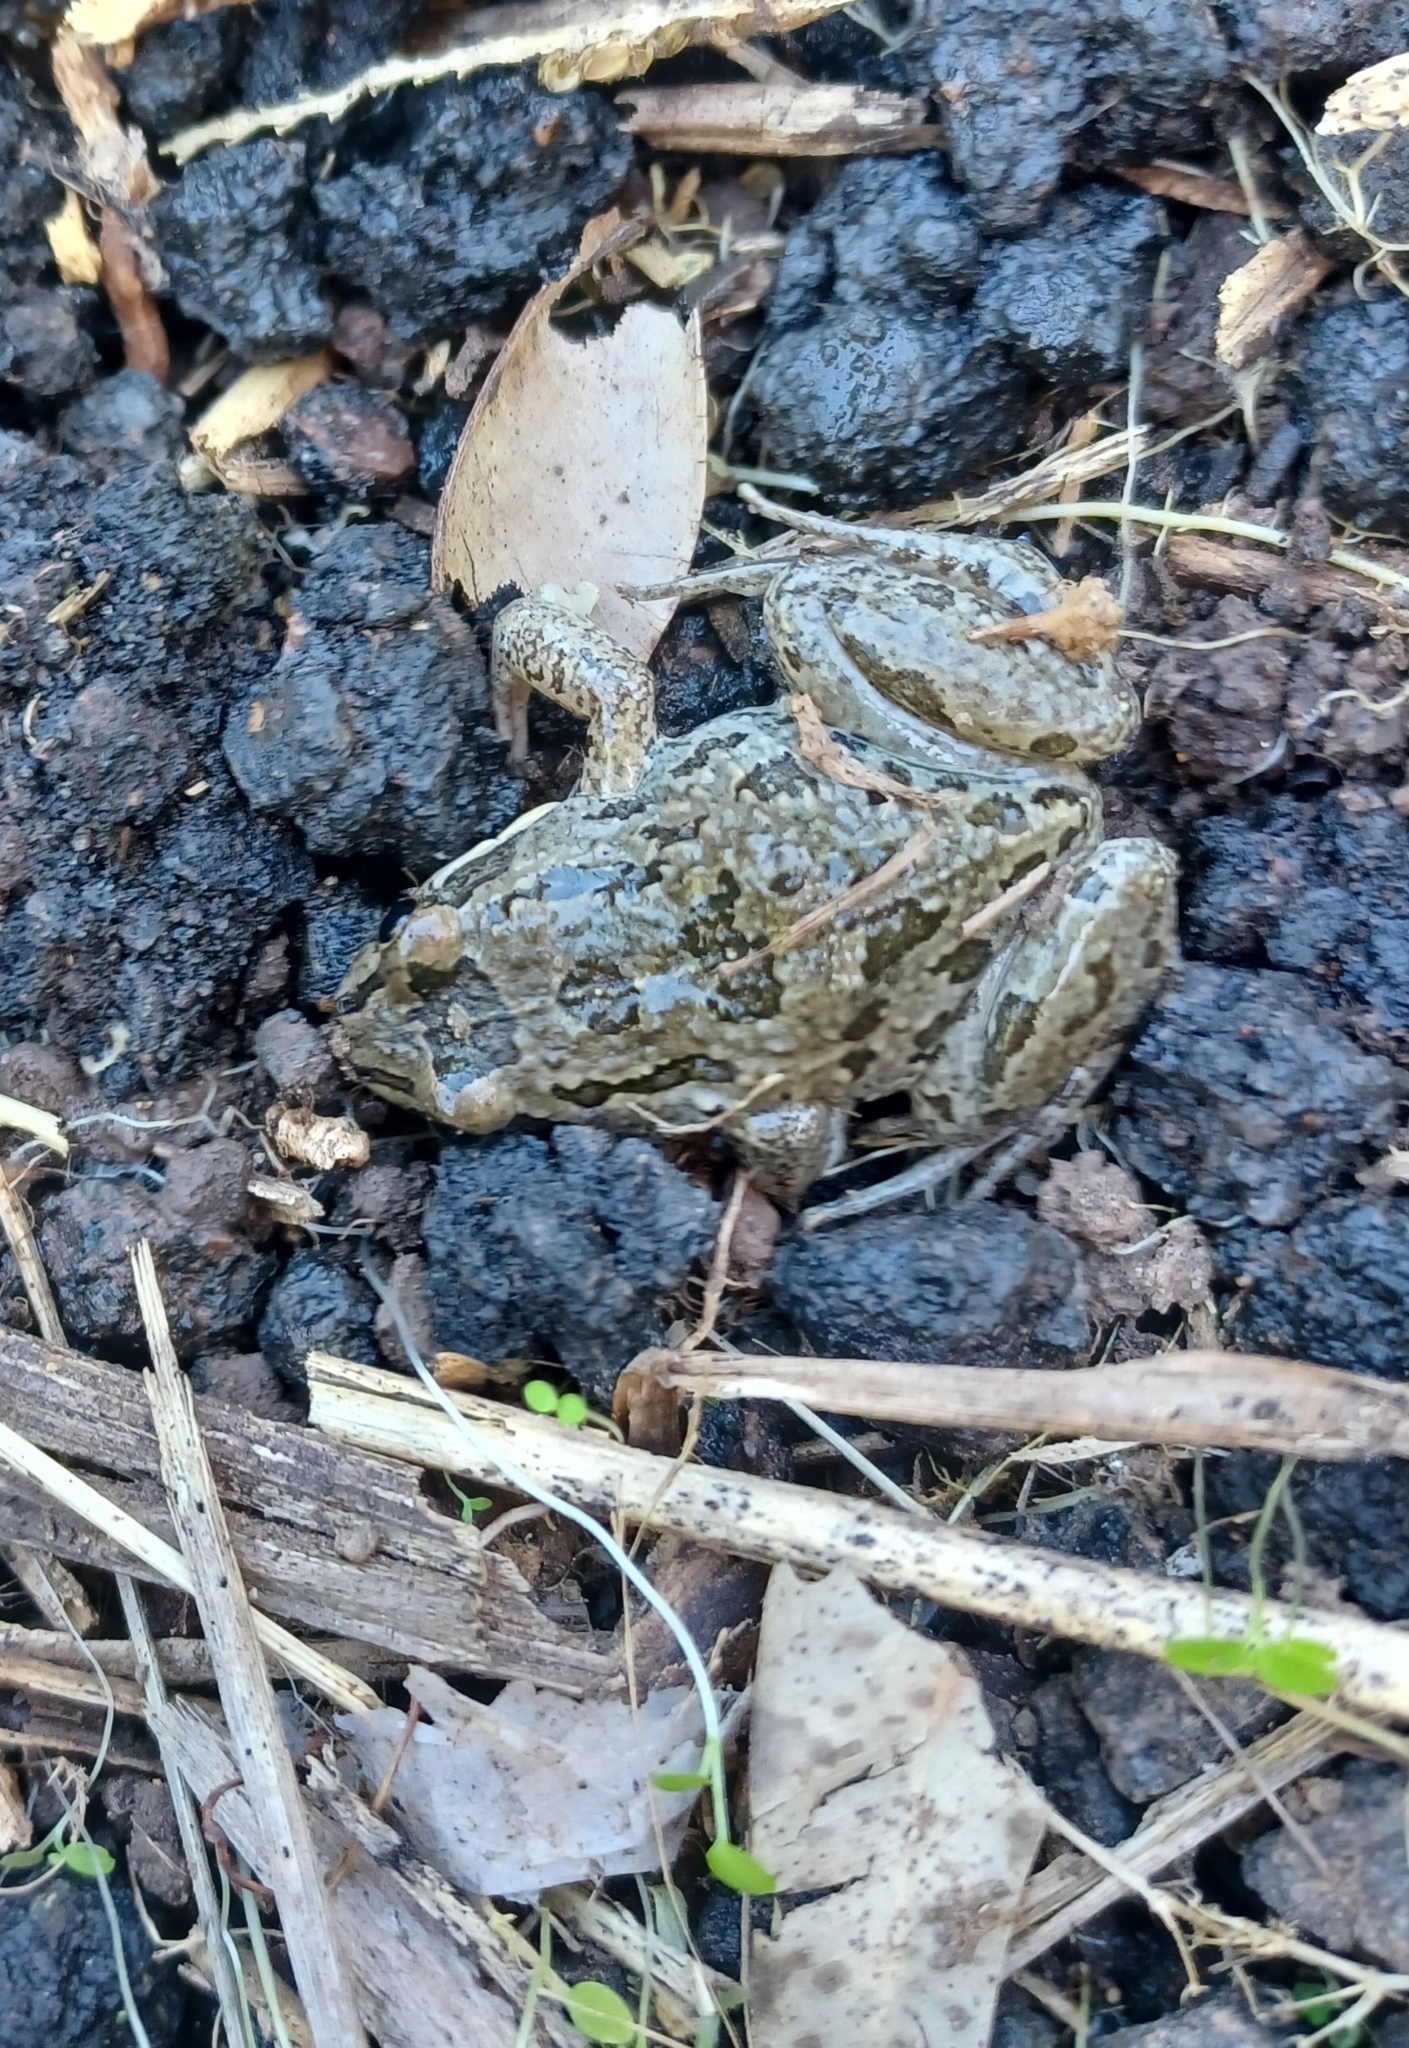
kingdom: Animalia
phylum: Chordata
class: Amphibia
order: Anura
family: Limnodynastidae
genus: Limnodynastes
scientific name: Limnodynastes tasmaniensis
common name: Spotted marsh frog
